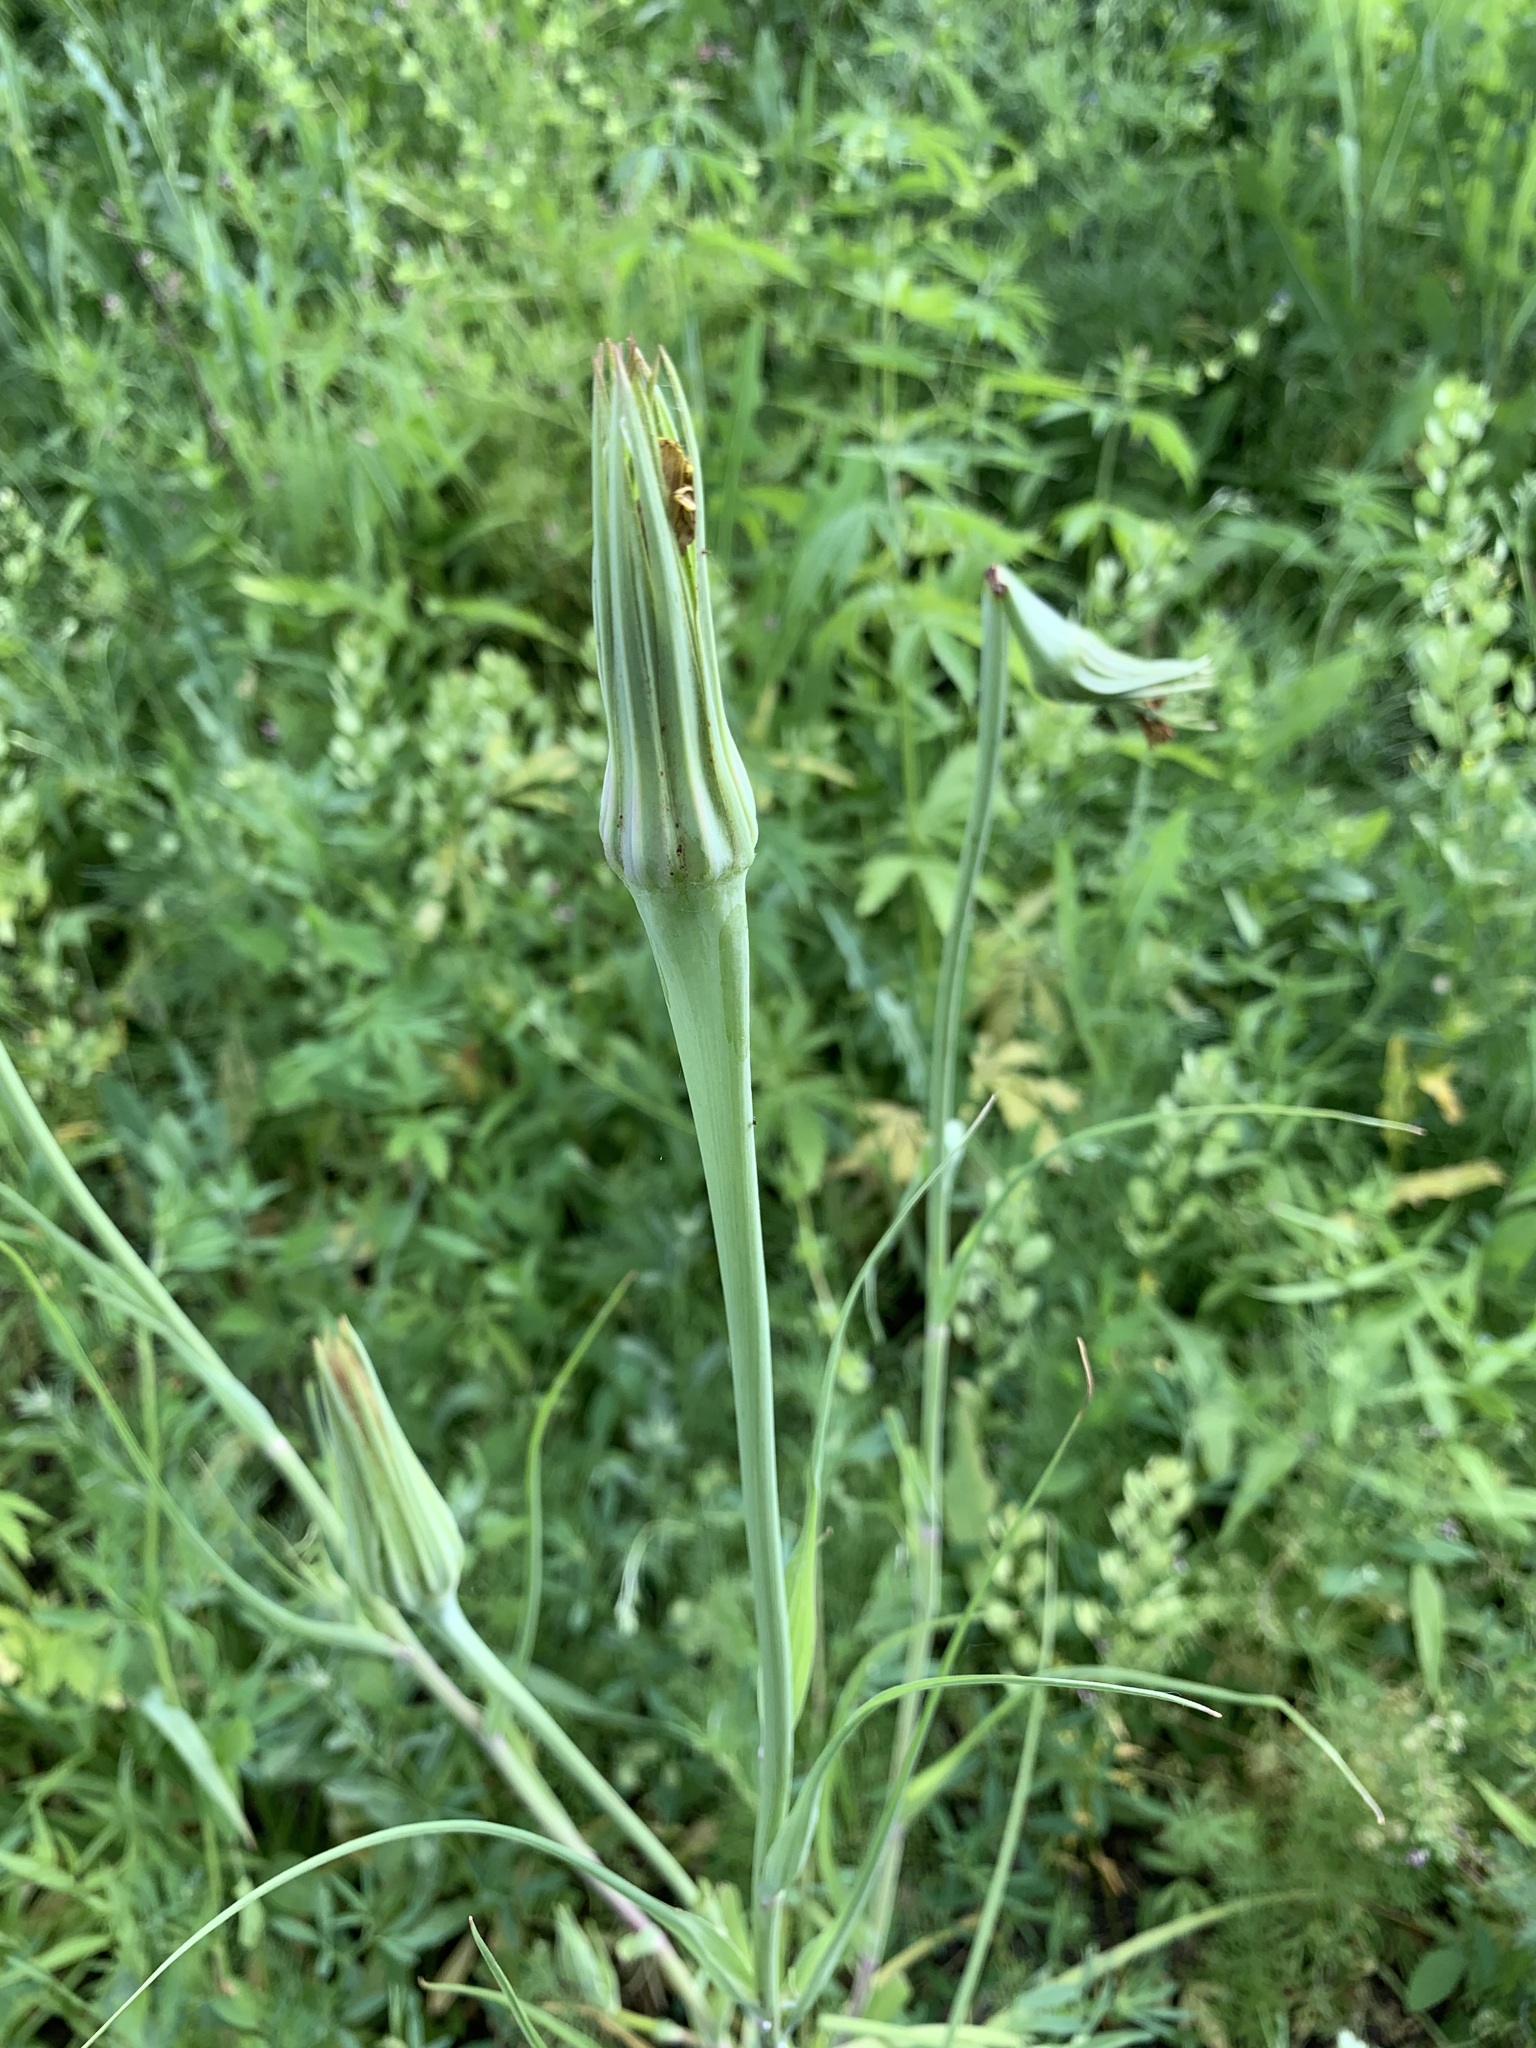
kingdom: Plantae
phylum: Tracheophyta
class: Magnoliopsida
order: Asterales
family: Asteraceae
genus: Tragopogon
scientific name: Tragopogon dubius
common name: Yellow salsify
